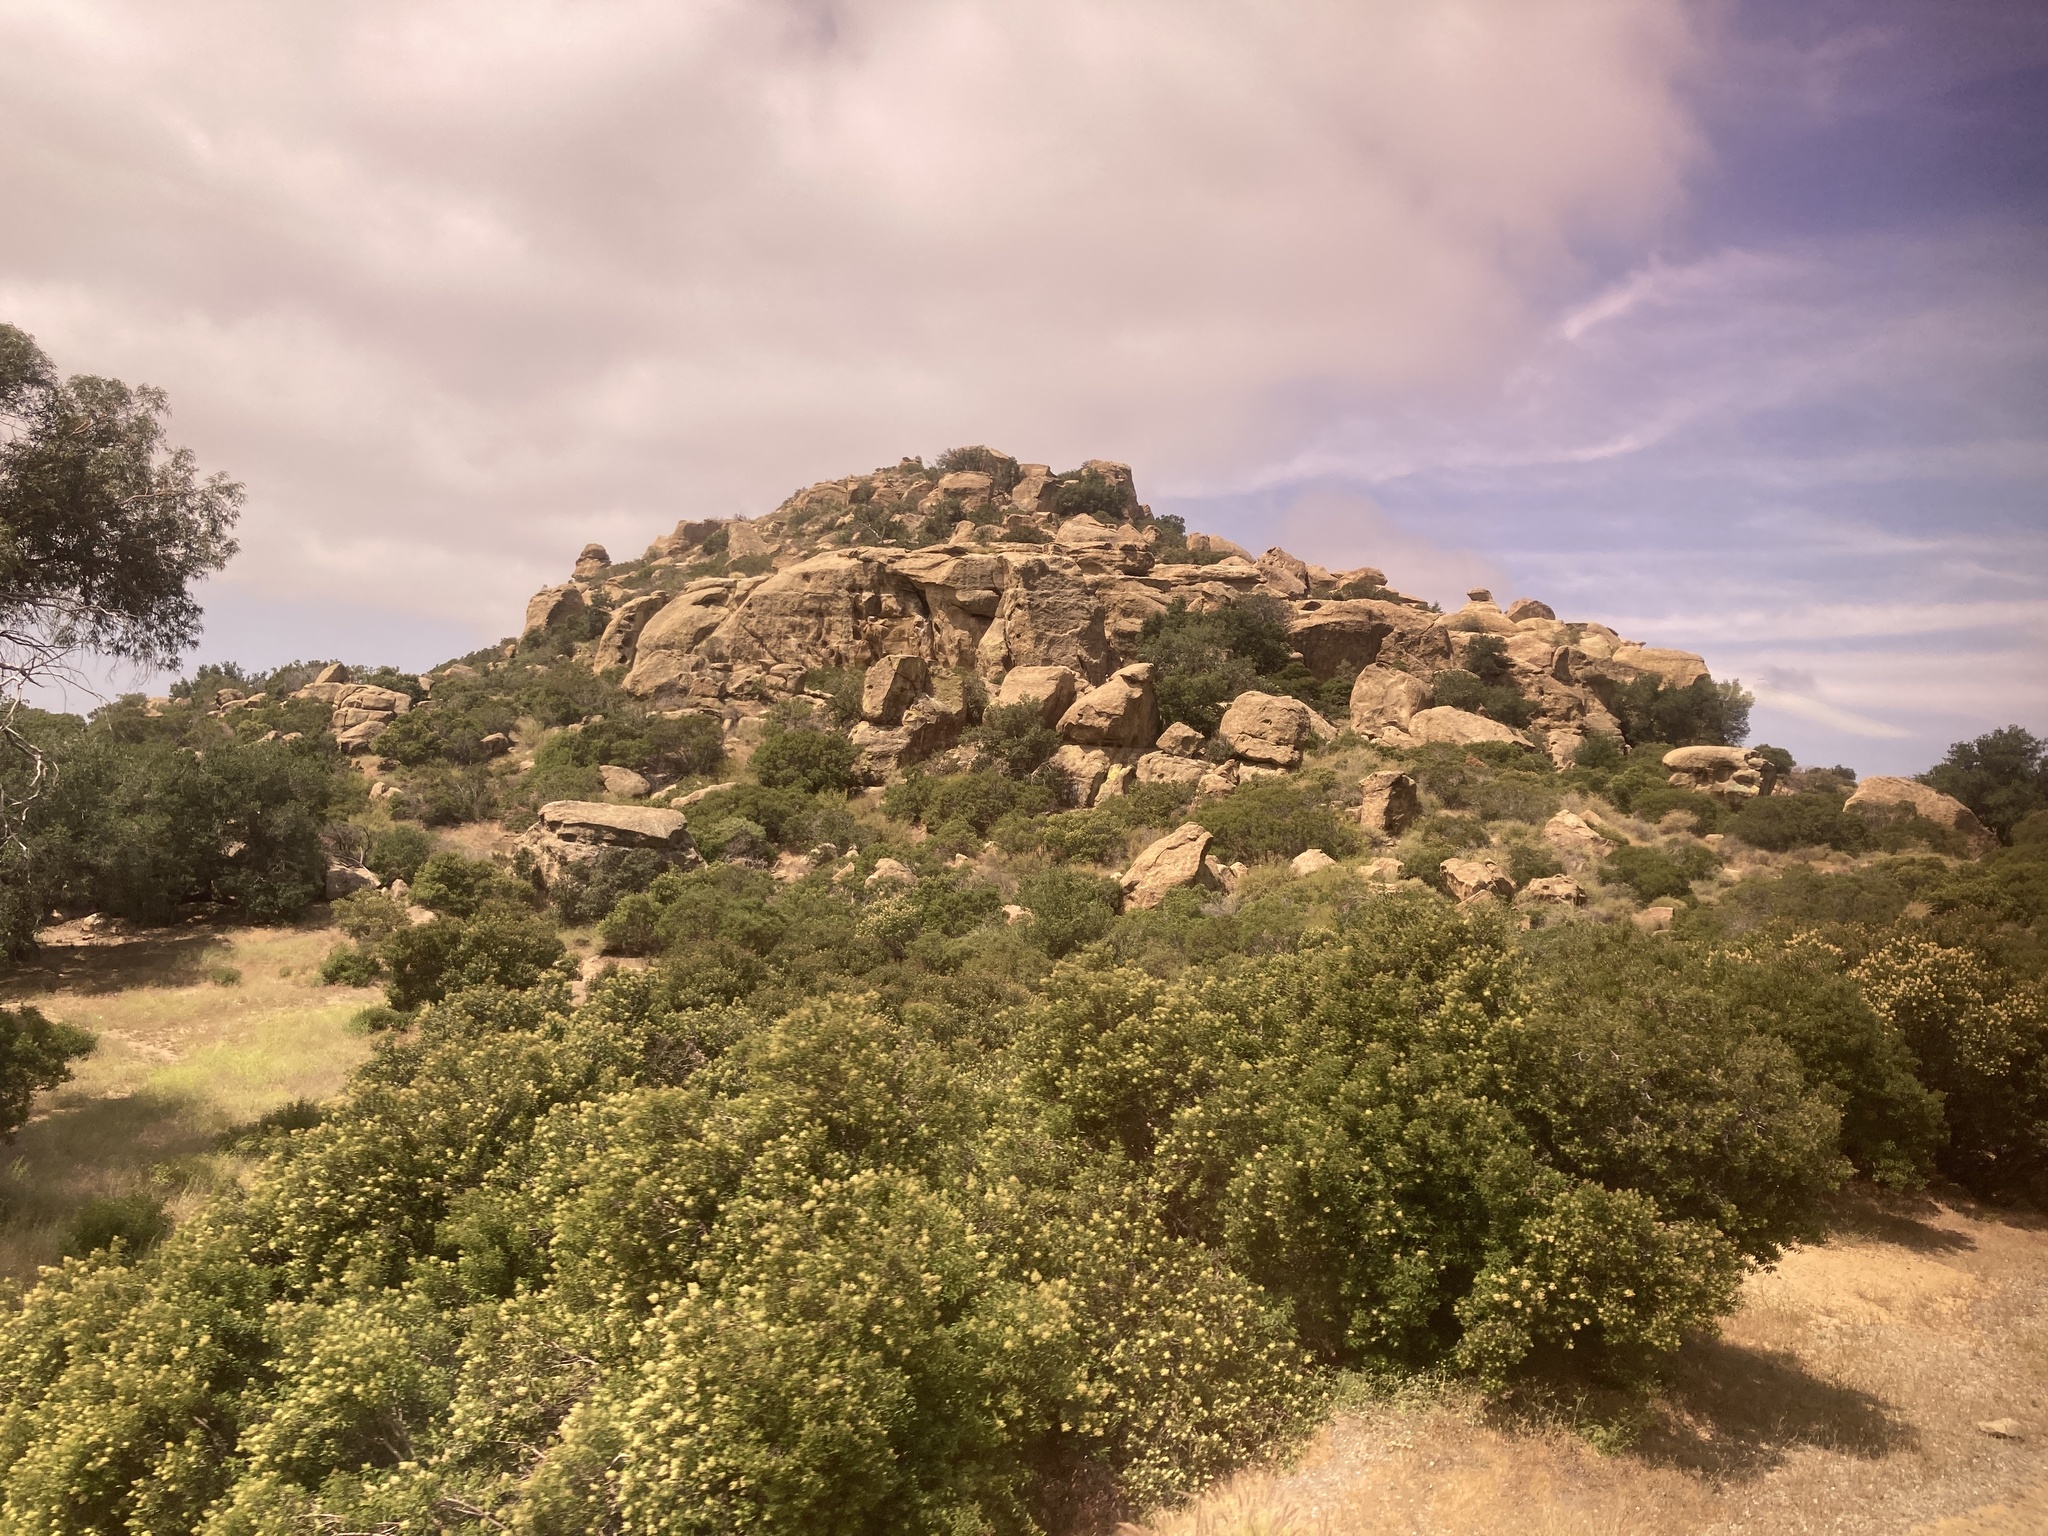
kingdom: Plantae
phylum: Tracheophyta
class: Magnoliopsida
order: Sapindales
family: Anacardiaceae
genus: Malosma
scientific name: Malosma laurina
